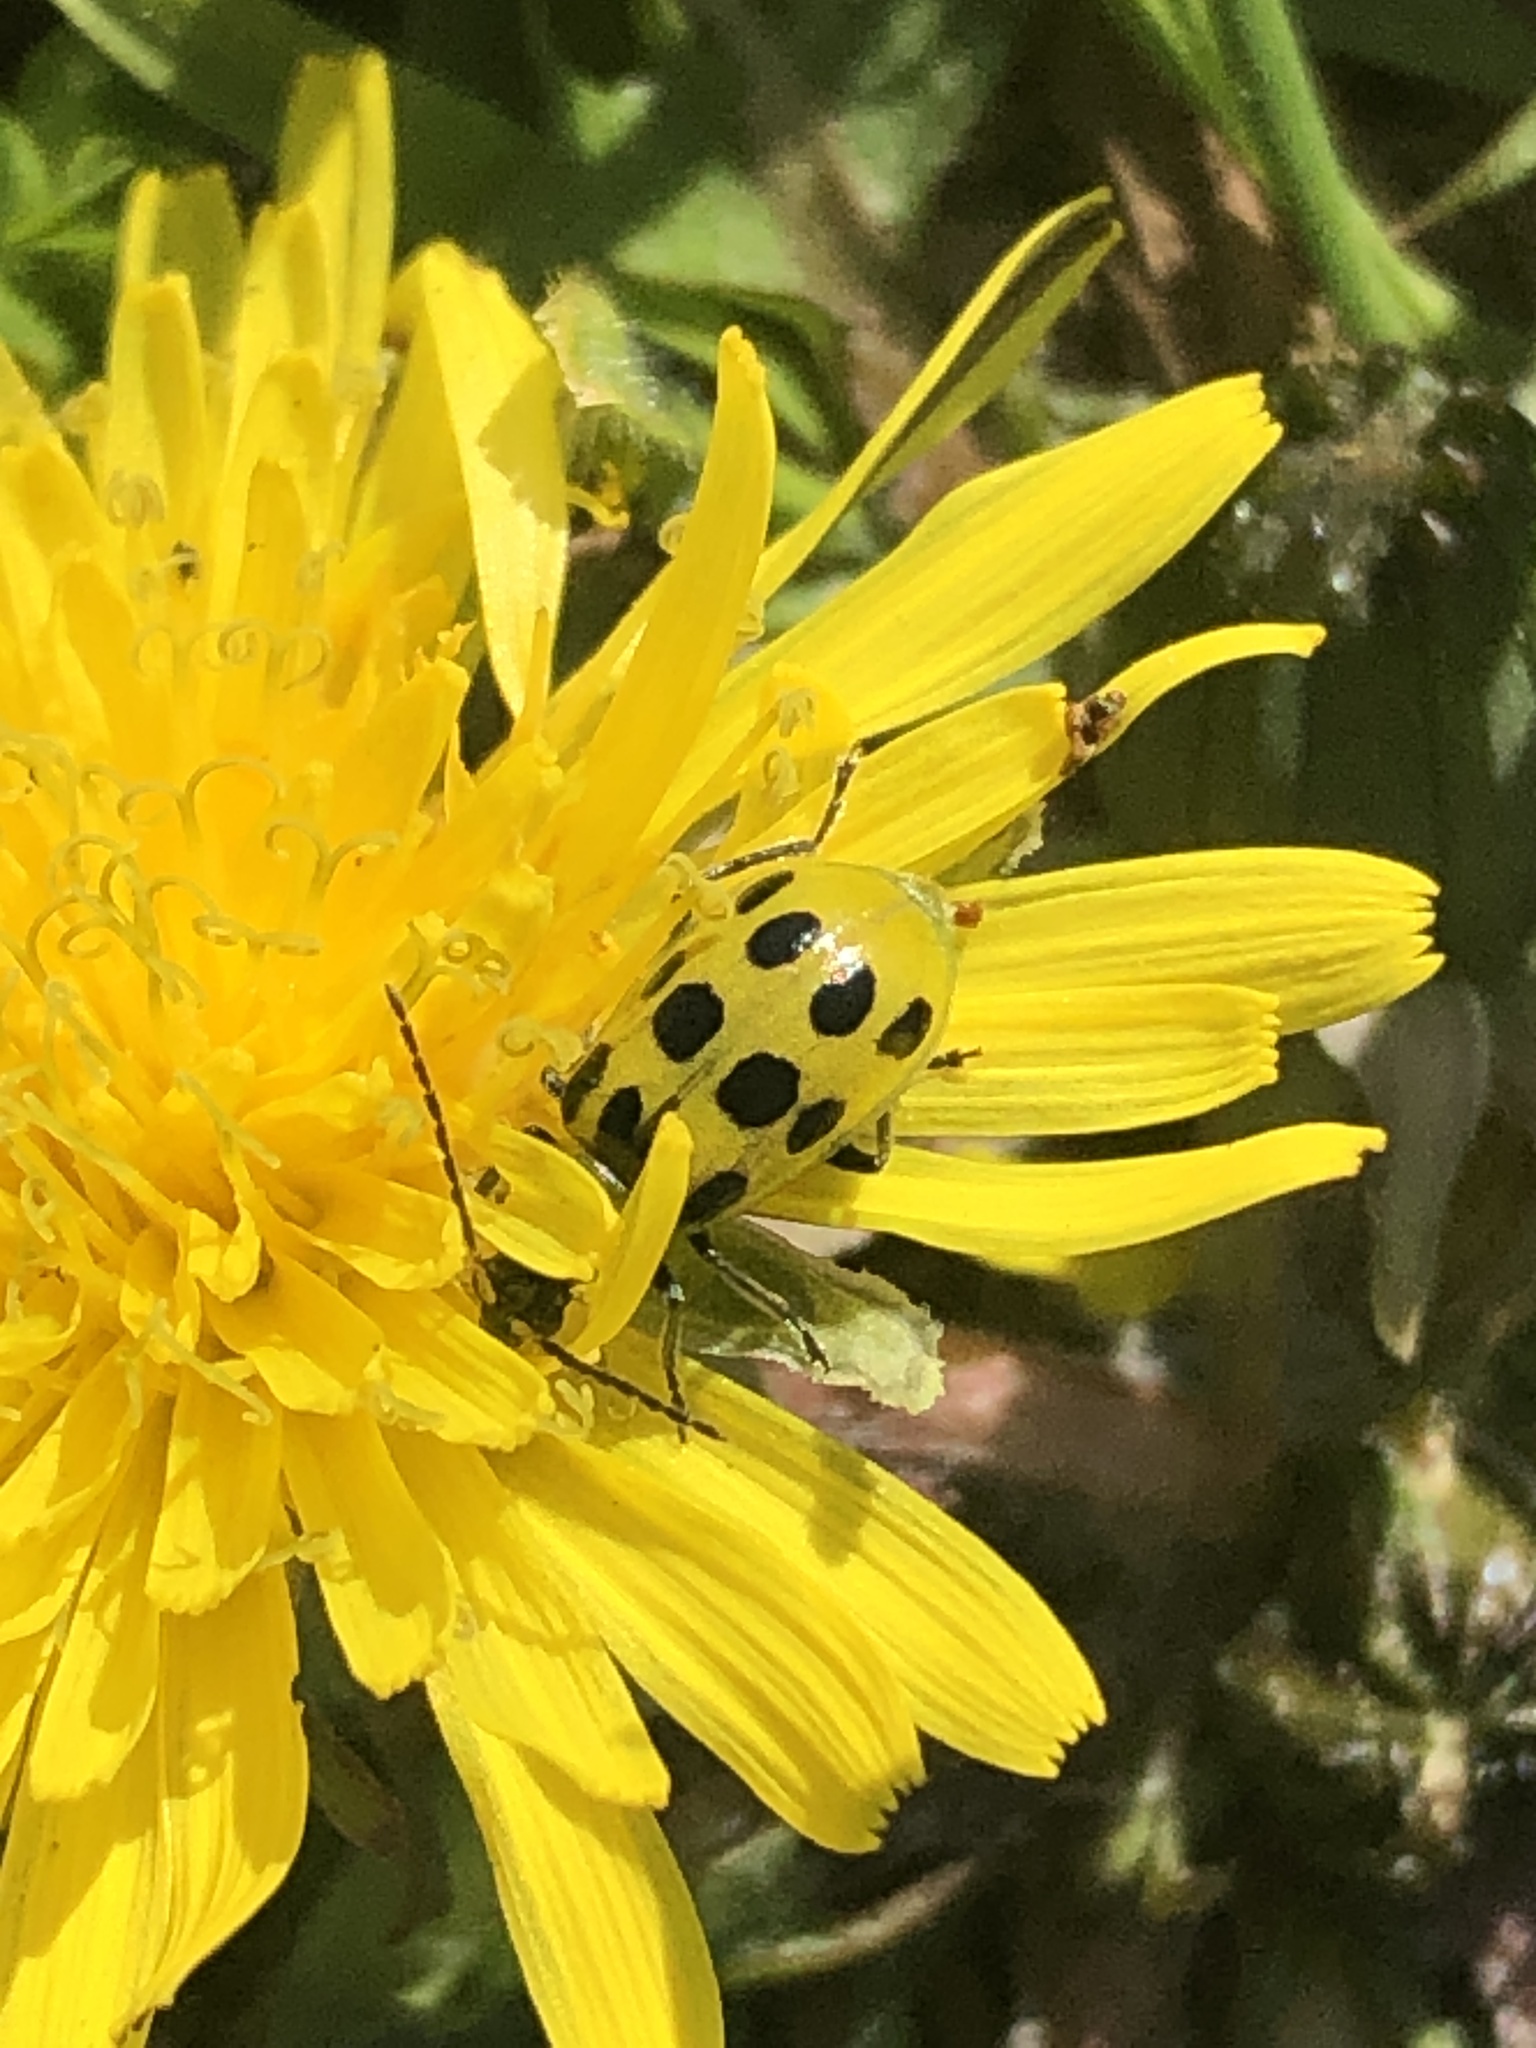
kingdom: Animalia
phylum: Arthropoda
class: Insecta
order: Coleoptera
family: Chrysomelidae
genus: Diabrotica
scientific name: Diabrotica undecimpunctata
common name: Spotted cucumber beetle
